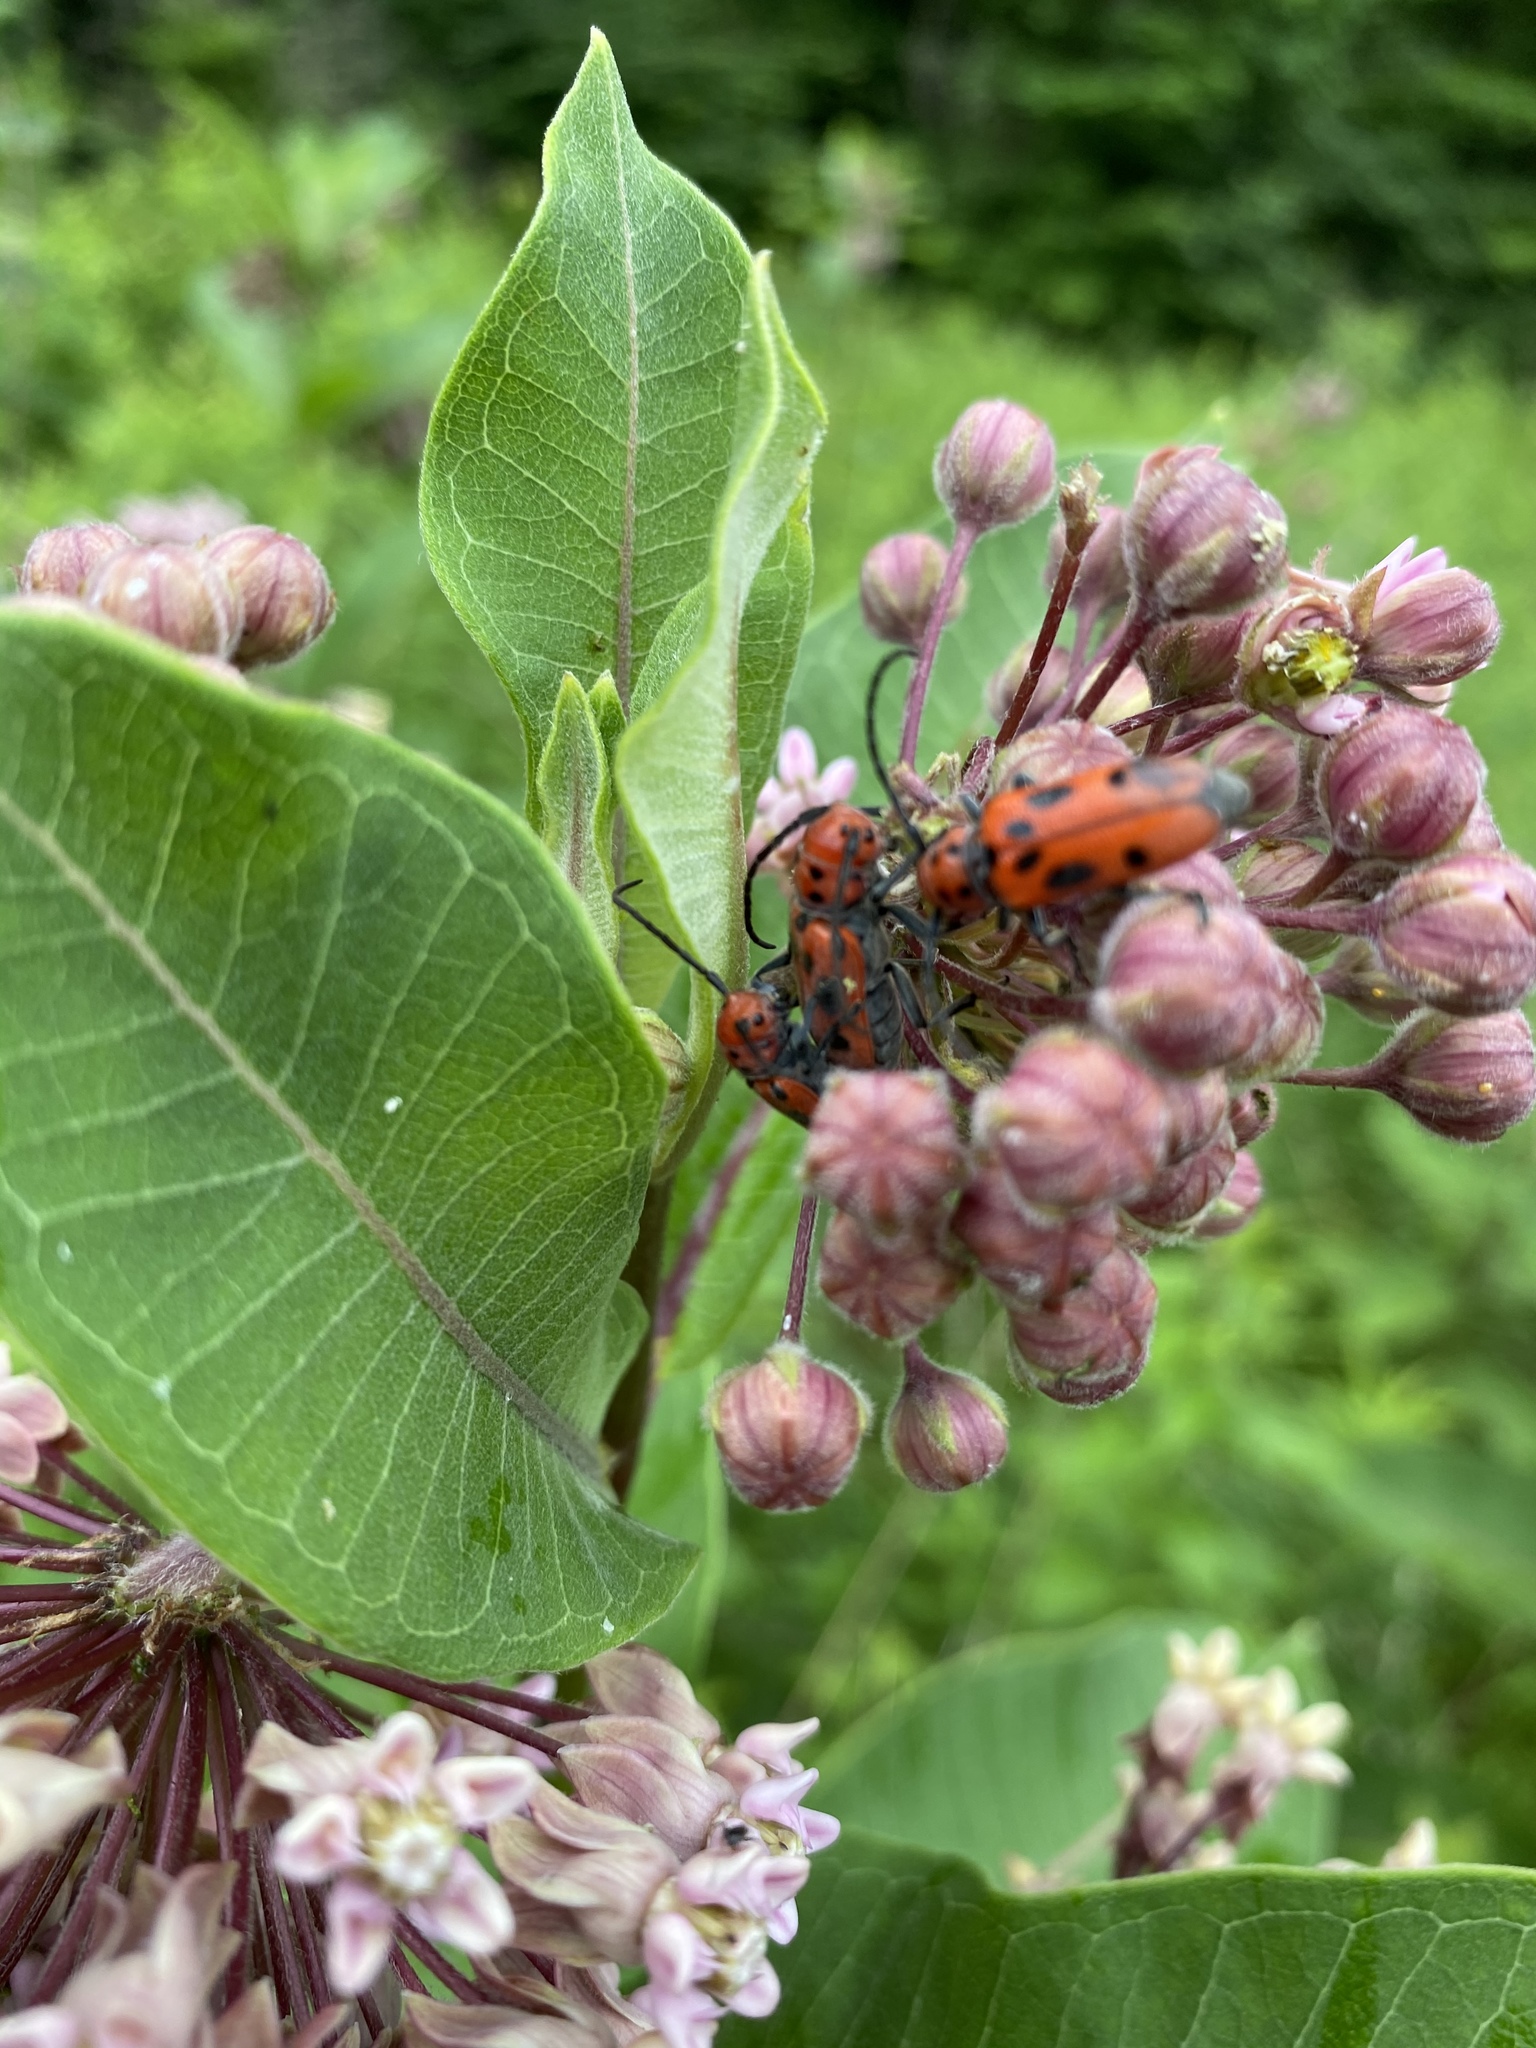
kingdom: Animalia
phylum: Arthropoda
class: Insecta
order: Coleoptera
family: Cerambycidae
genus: Tetraopes
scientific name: Tetraopes tetrophthalmus
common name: Red milkweed beetle
